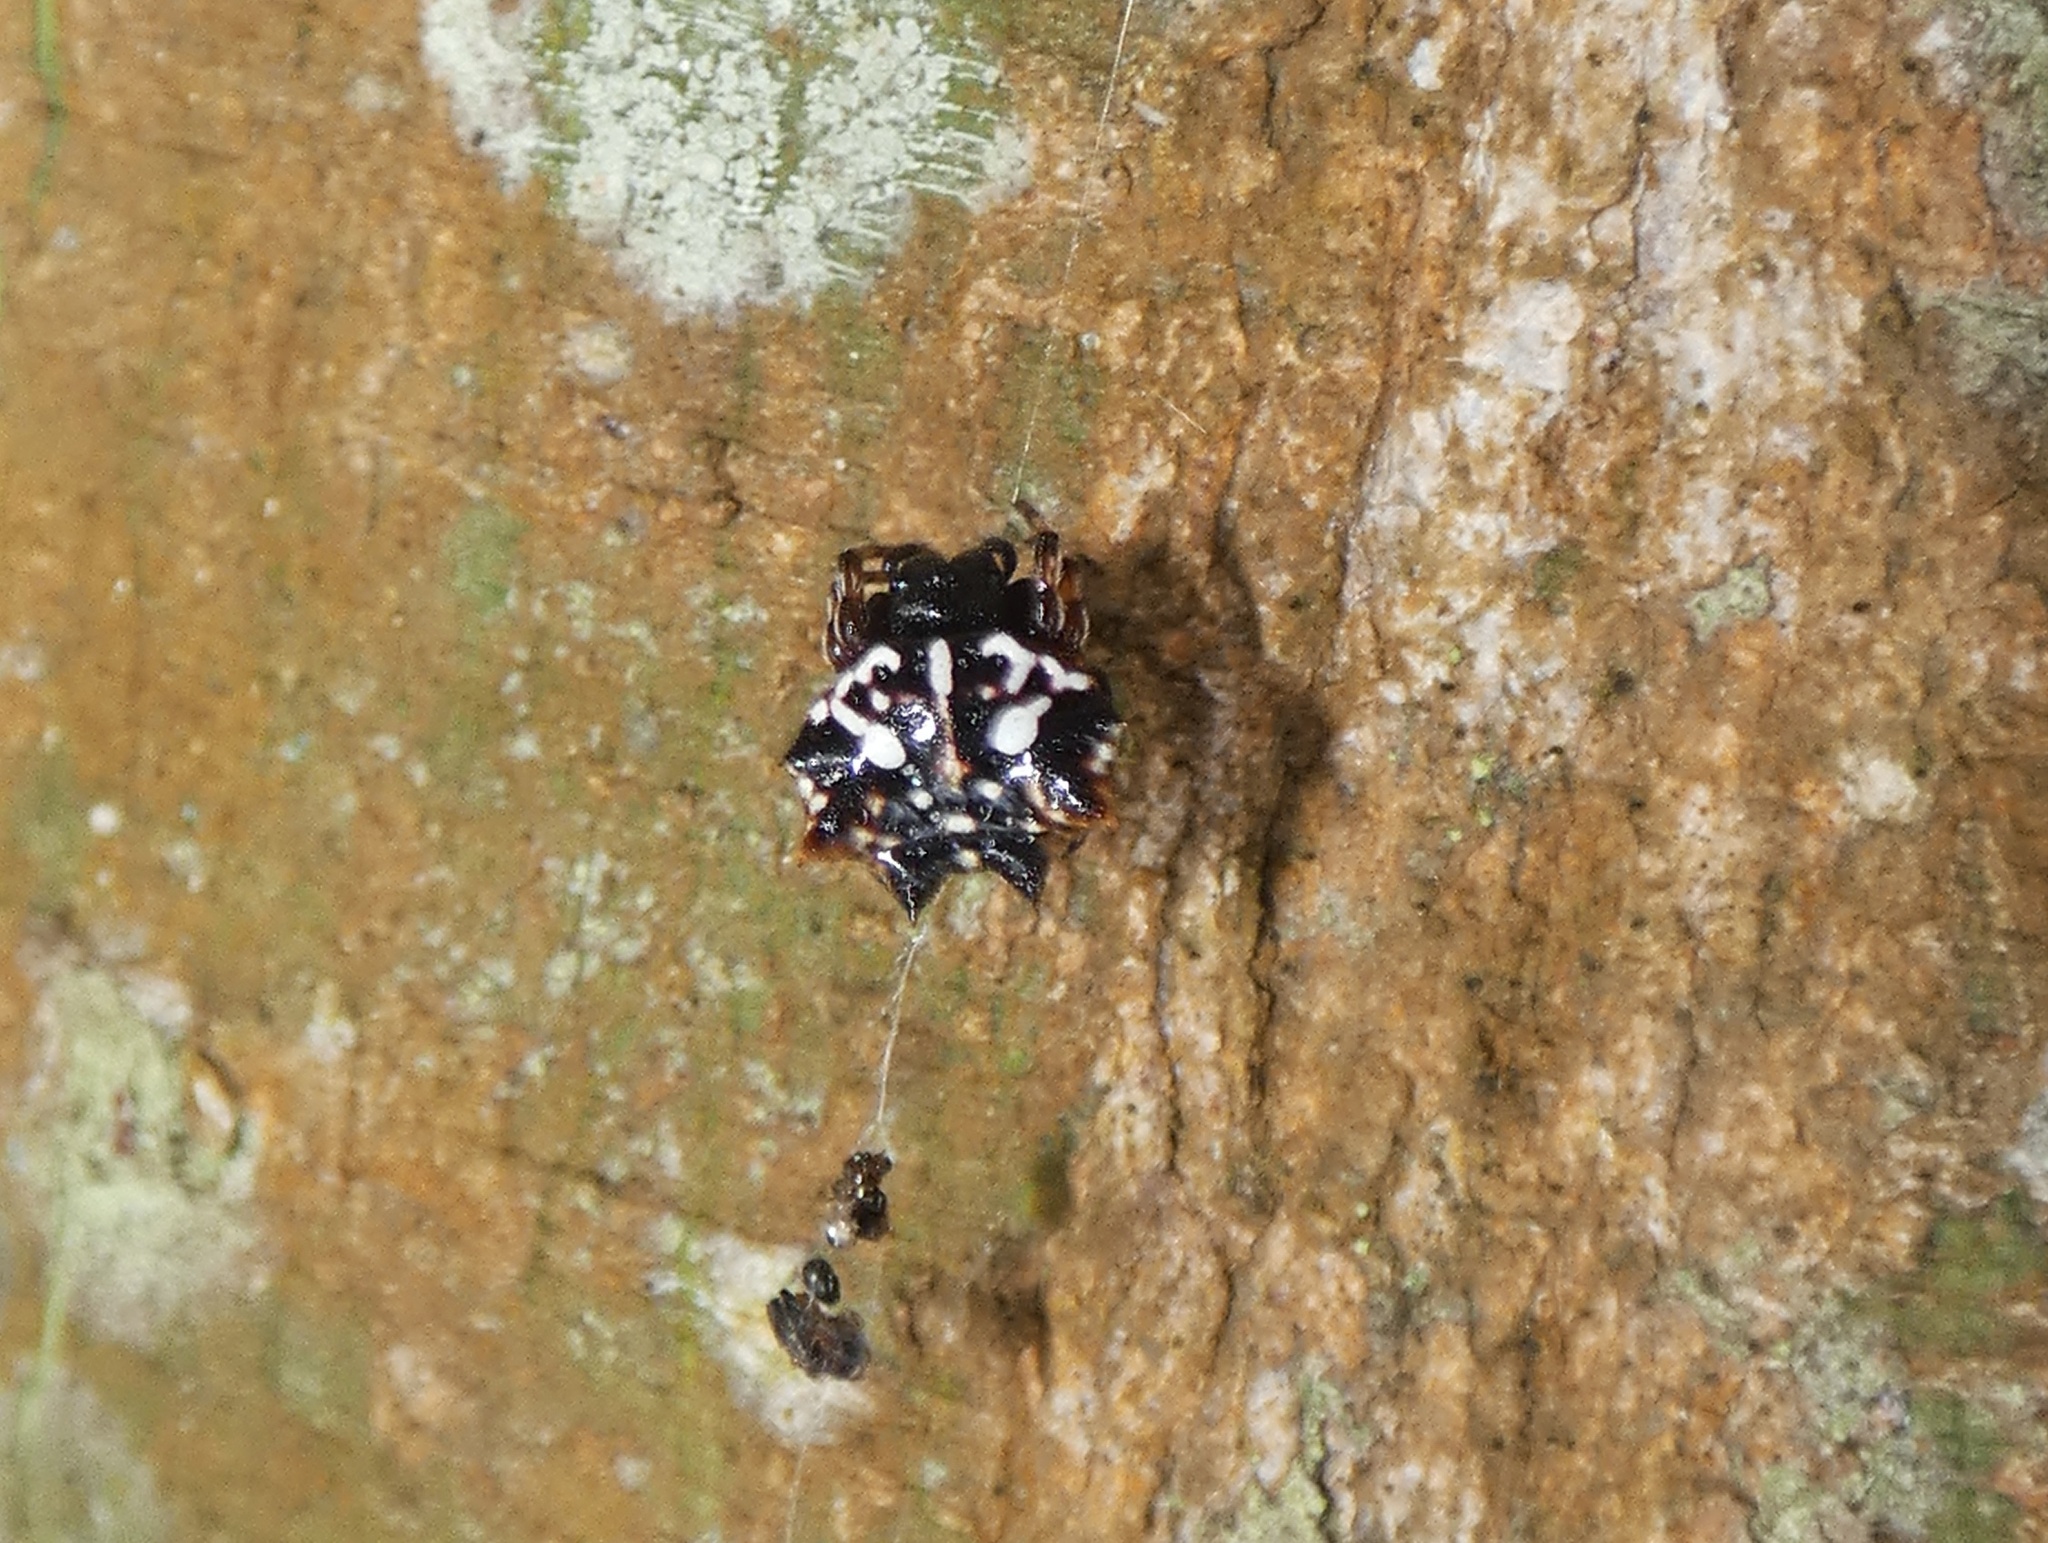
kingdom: Animalia
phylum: Arthropoda
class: Arachnida
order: Araneae
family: Araneidae
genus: Gasteracantha
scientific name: Gasteracantha sacerdotalis
